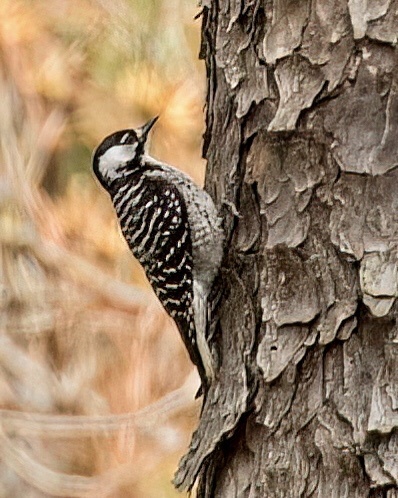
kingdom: Animalia
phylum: Chordata
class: Aves
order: Piciformes
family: Picidae
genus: Leuconotopicus
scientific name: Leuconotopicus borealis
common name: Red-cockaded woodpecker
